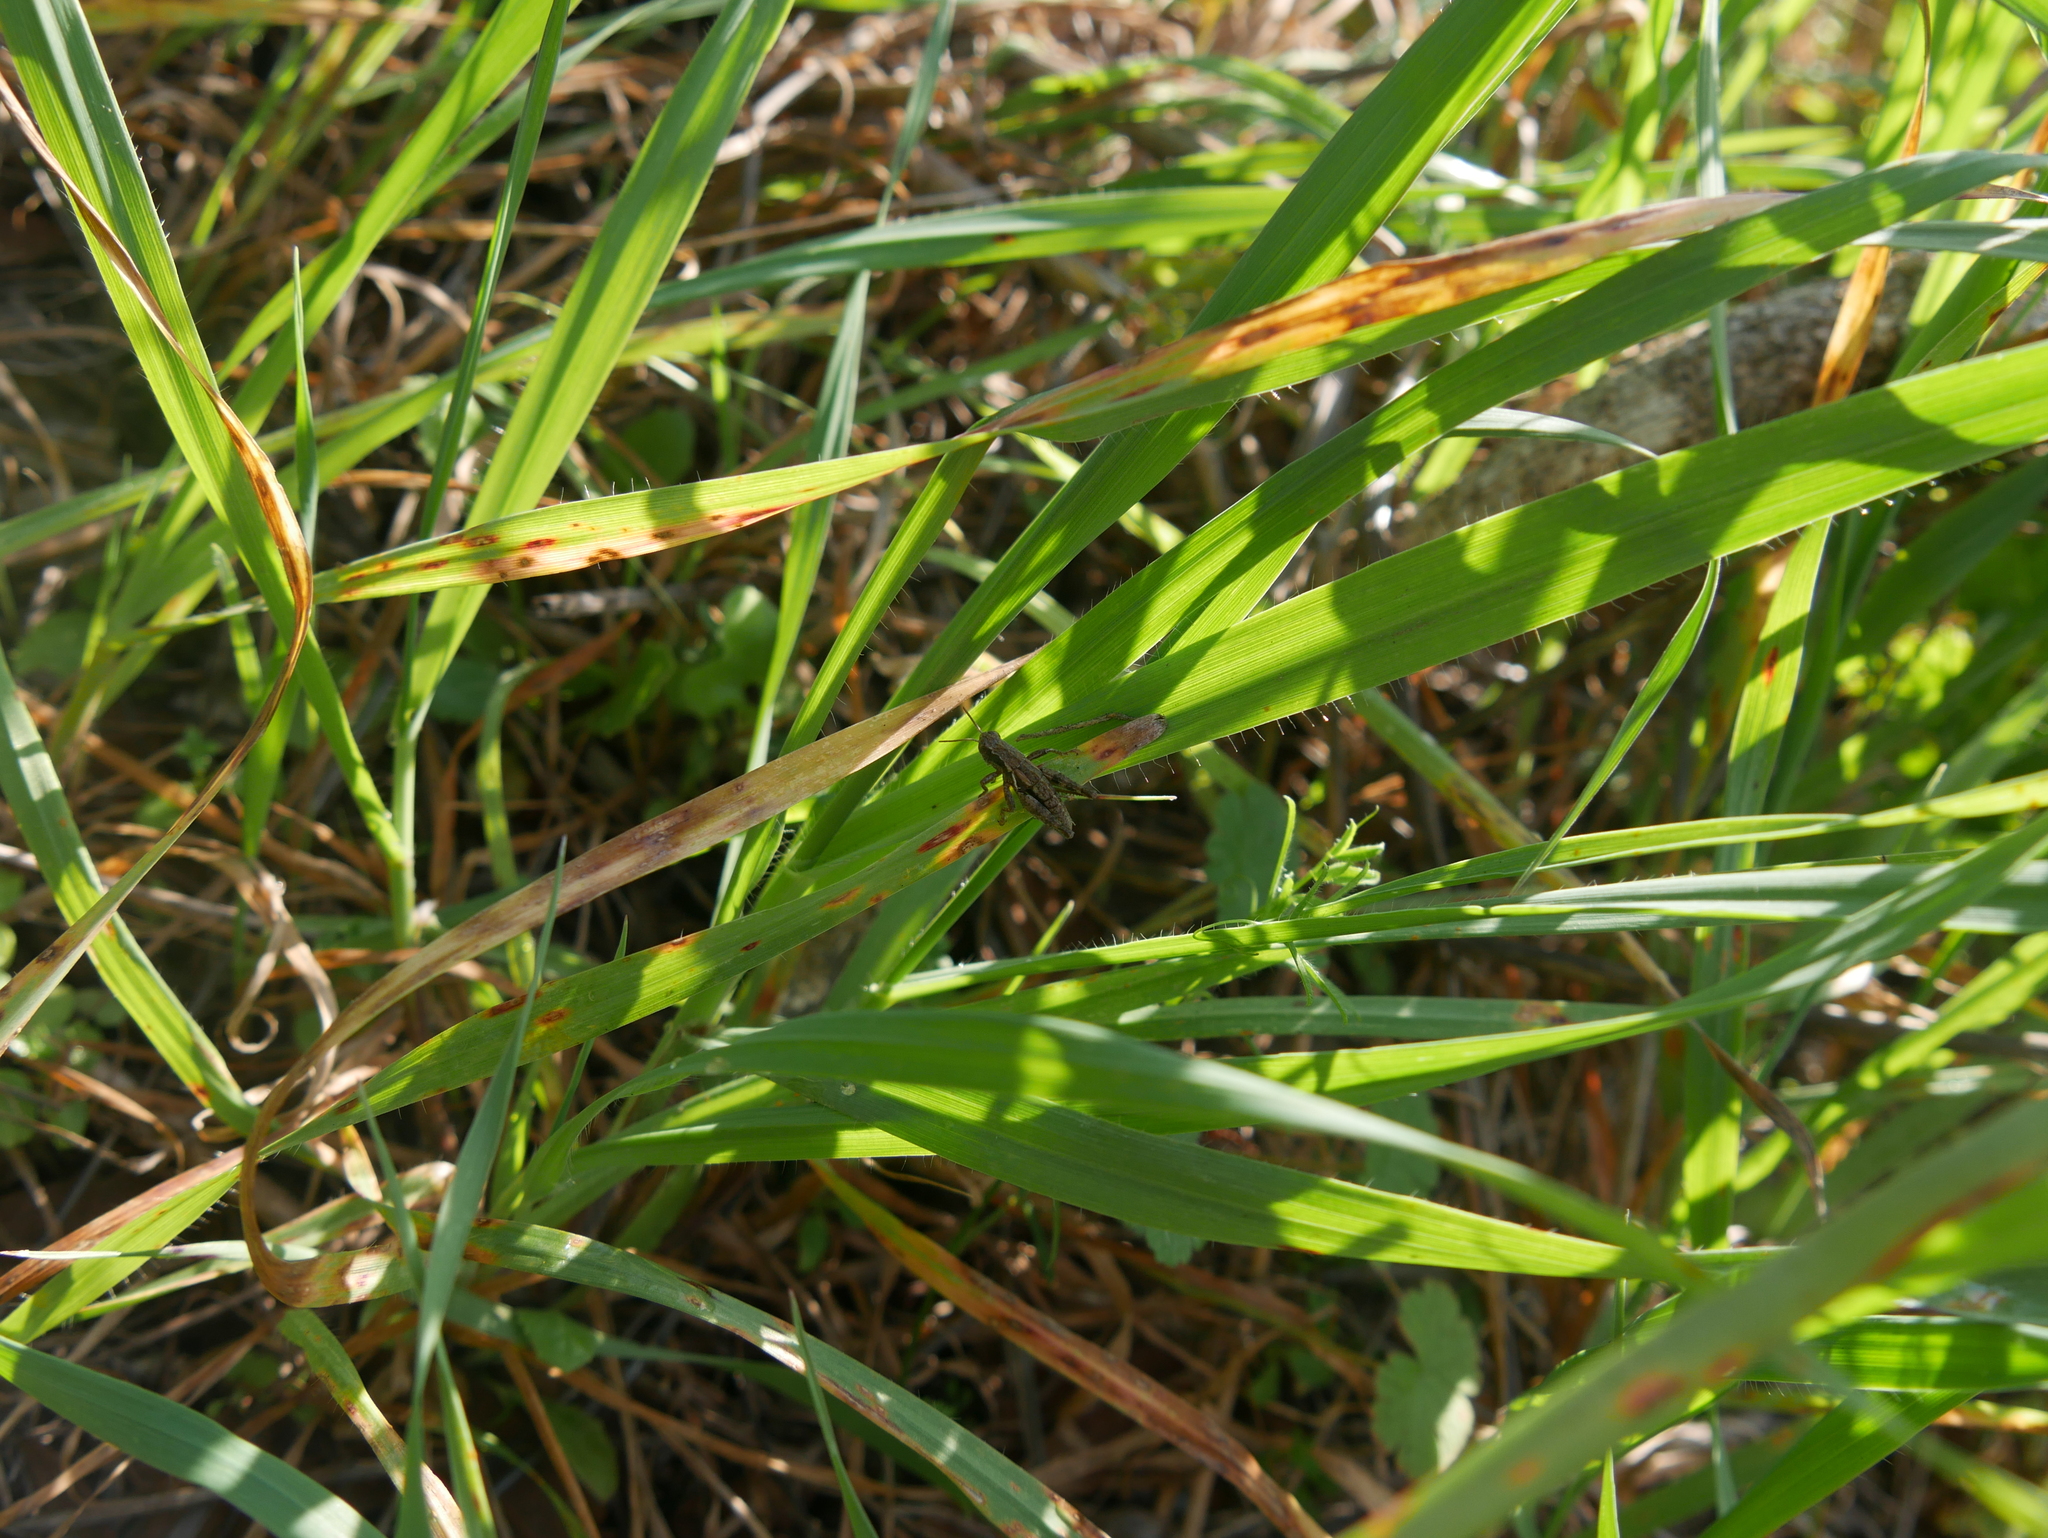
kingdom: Animalia
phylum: Arthropoda
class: Insecta
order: Orthoptera
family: Acrididae
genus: Pezotettix
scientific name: Pezotettix giornae
